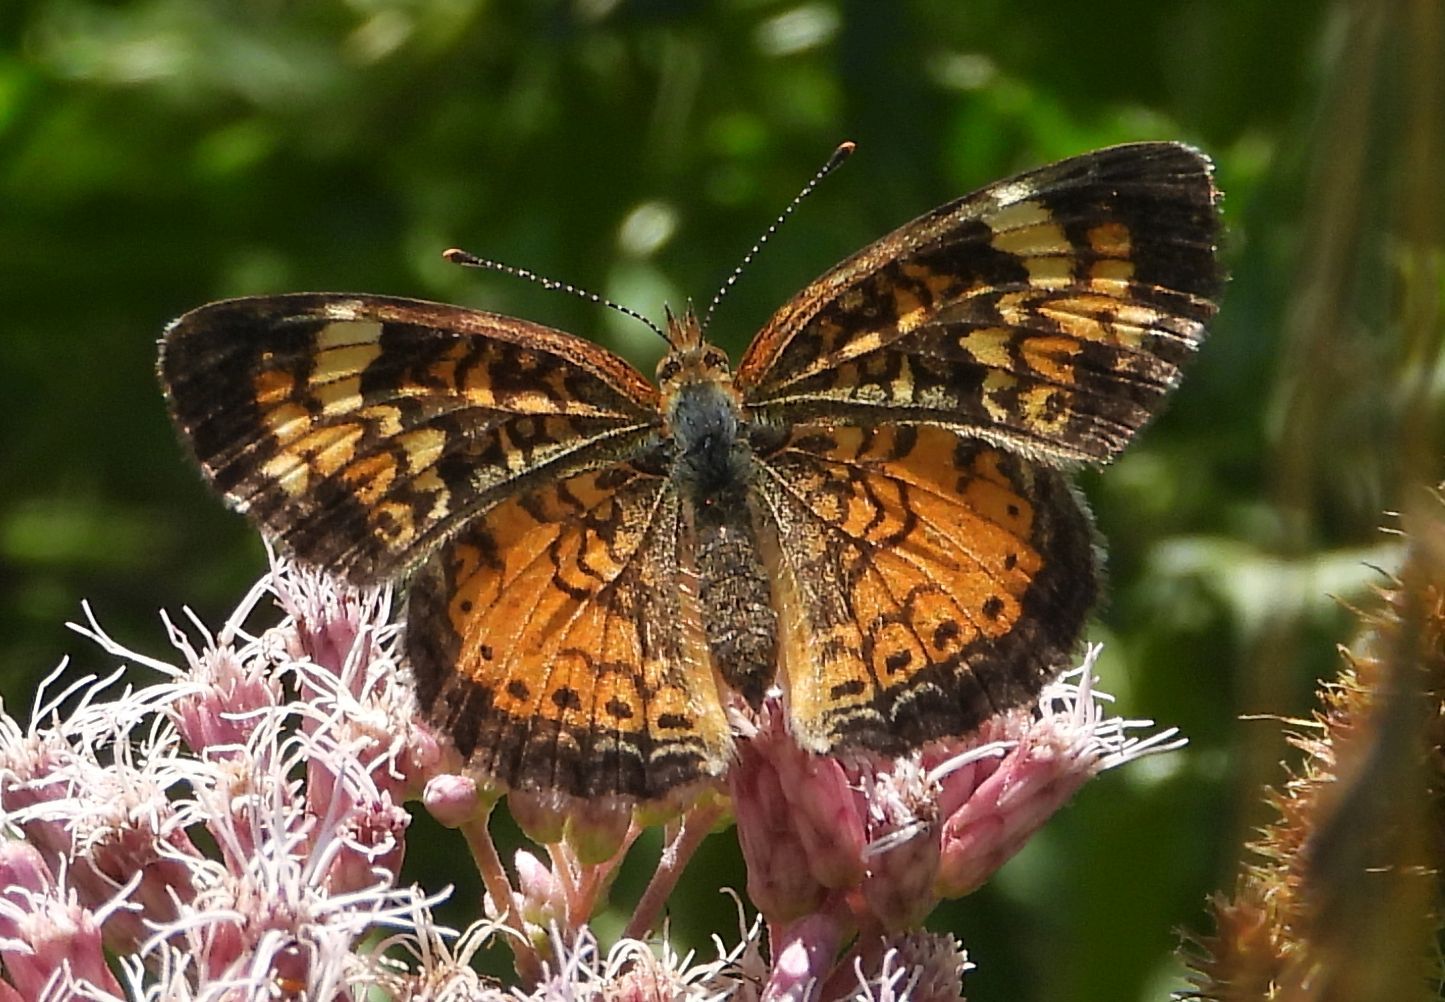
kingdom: Animalia
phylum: Arthropoda
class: Insecta
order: Lepidoptera
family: Nymphalidae
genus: Phyciodes
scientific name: Phyciodes tharos
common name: Pearl crescent
